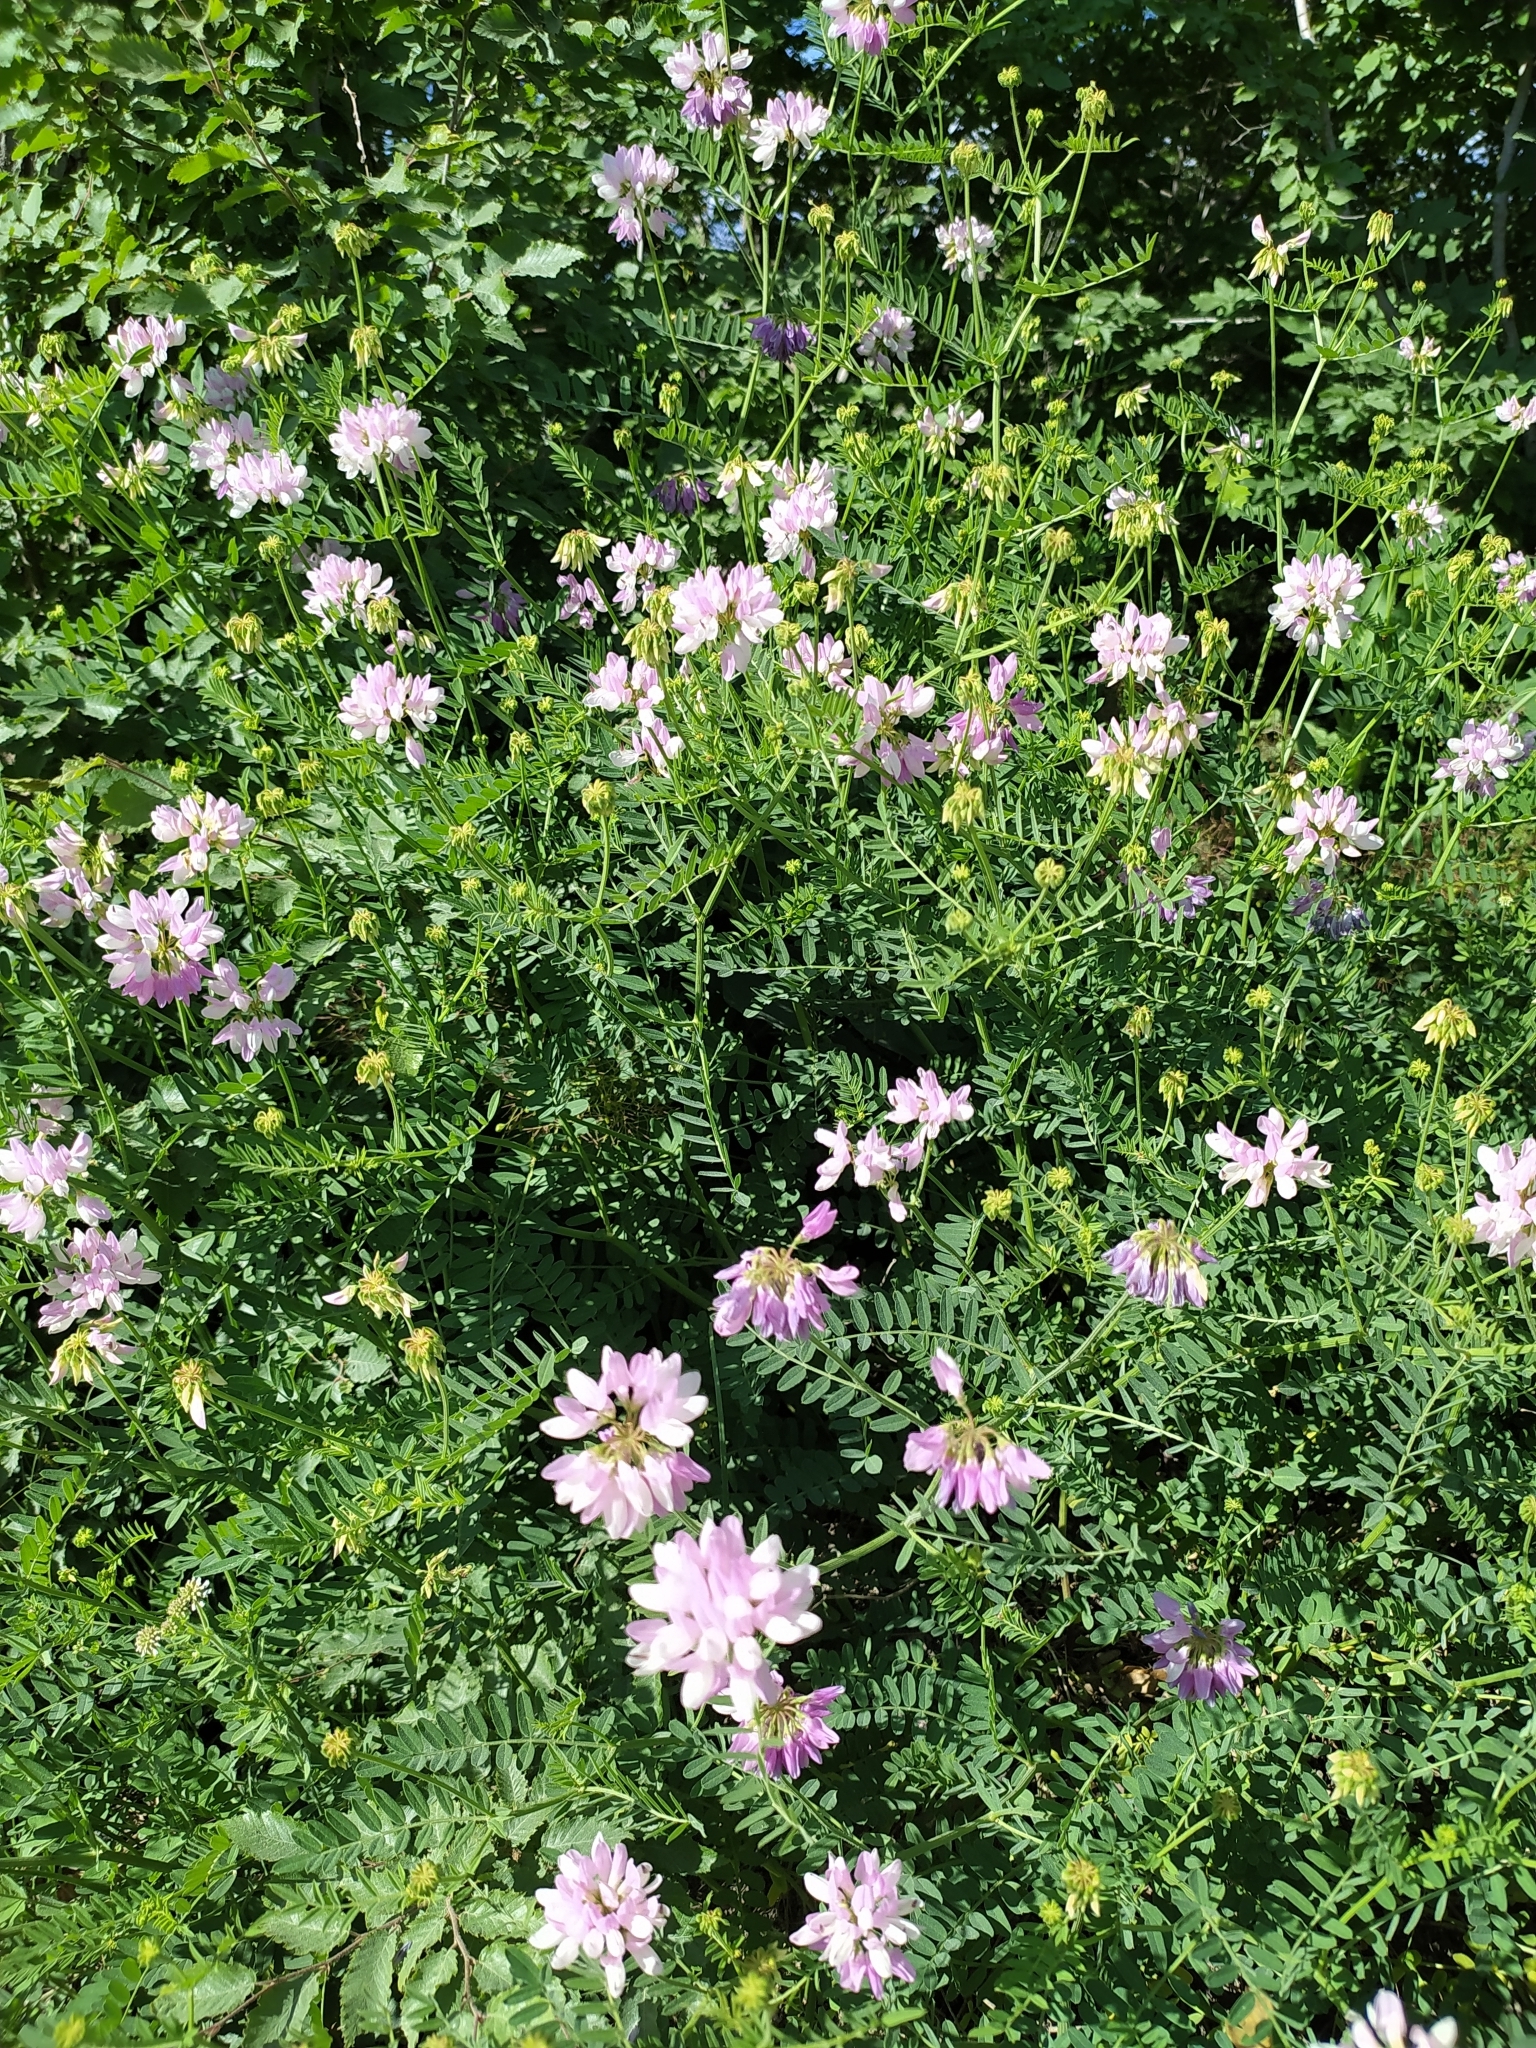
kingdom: Plantae
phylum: Tracheophyta
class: Magnoliopsida
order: Fabales
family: Fabaceae
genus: Coronilla
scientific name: Coronilla varia
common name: Crownvetch
